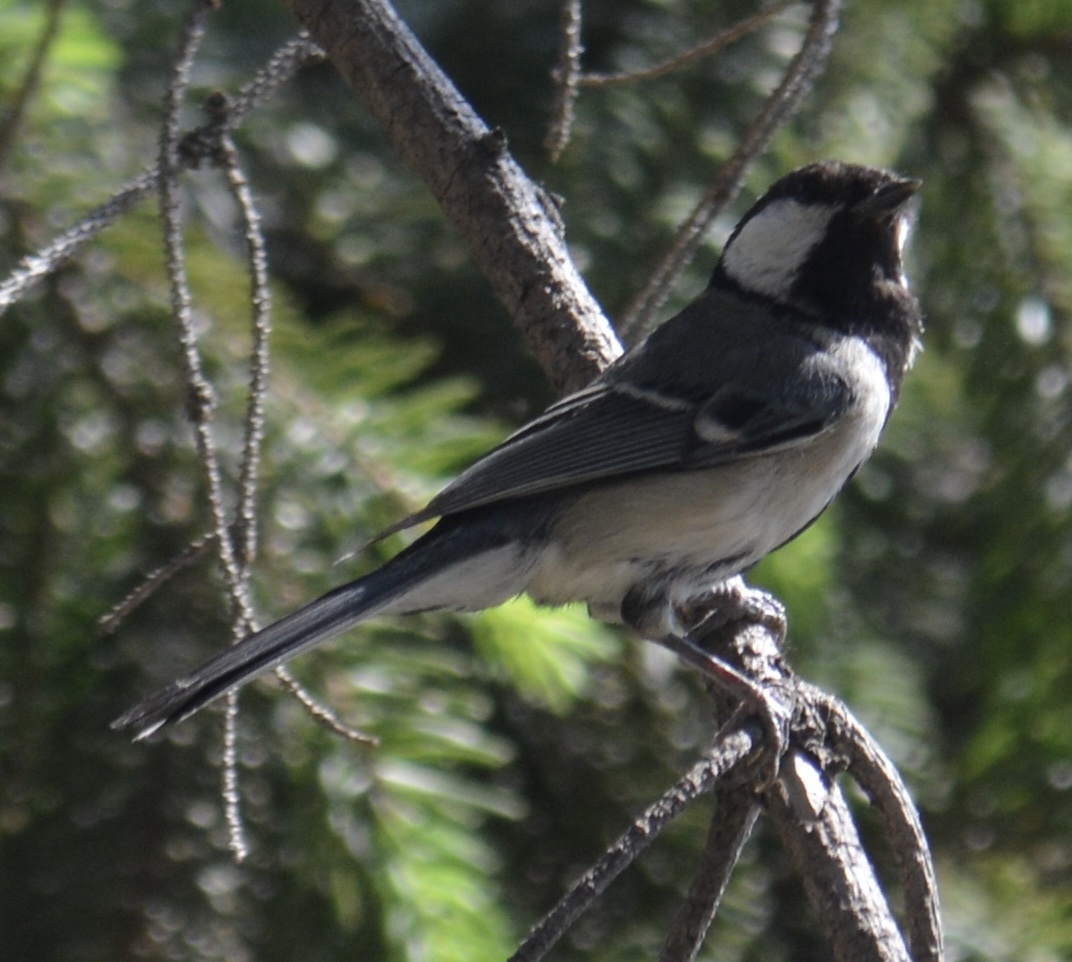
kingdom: Animalia
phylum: Chordata
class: Aves
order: Passeriformes
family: Paridae
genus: Parus
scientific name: Parus minor
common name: Japanese tit
